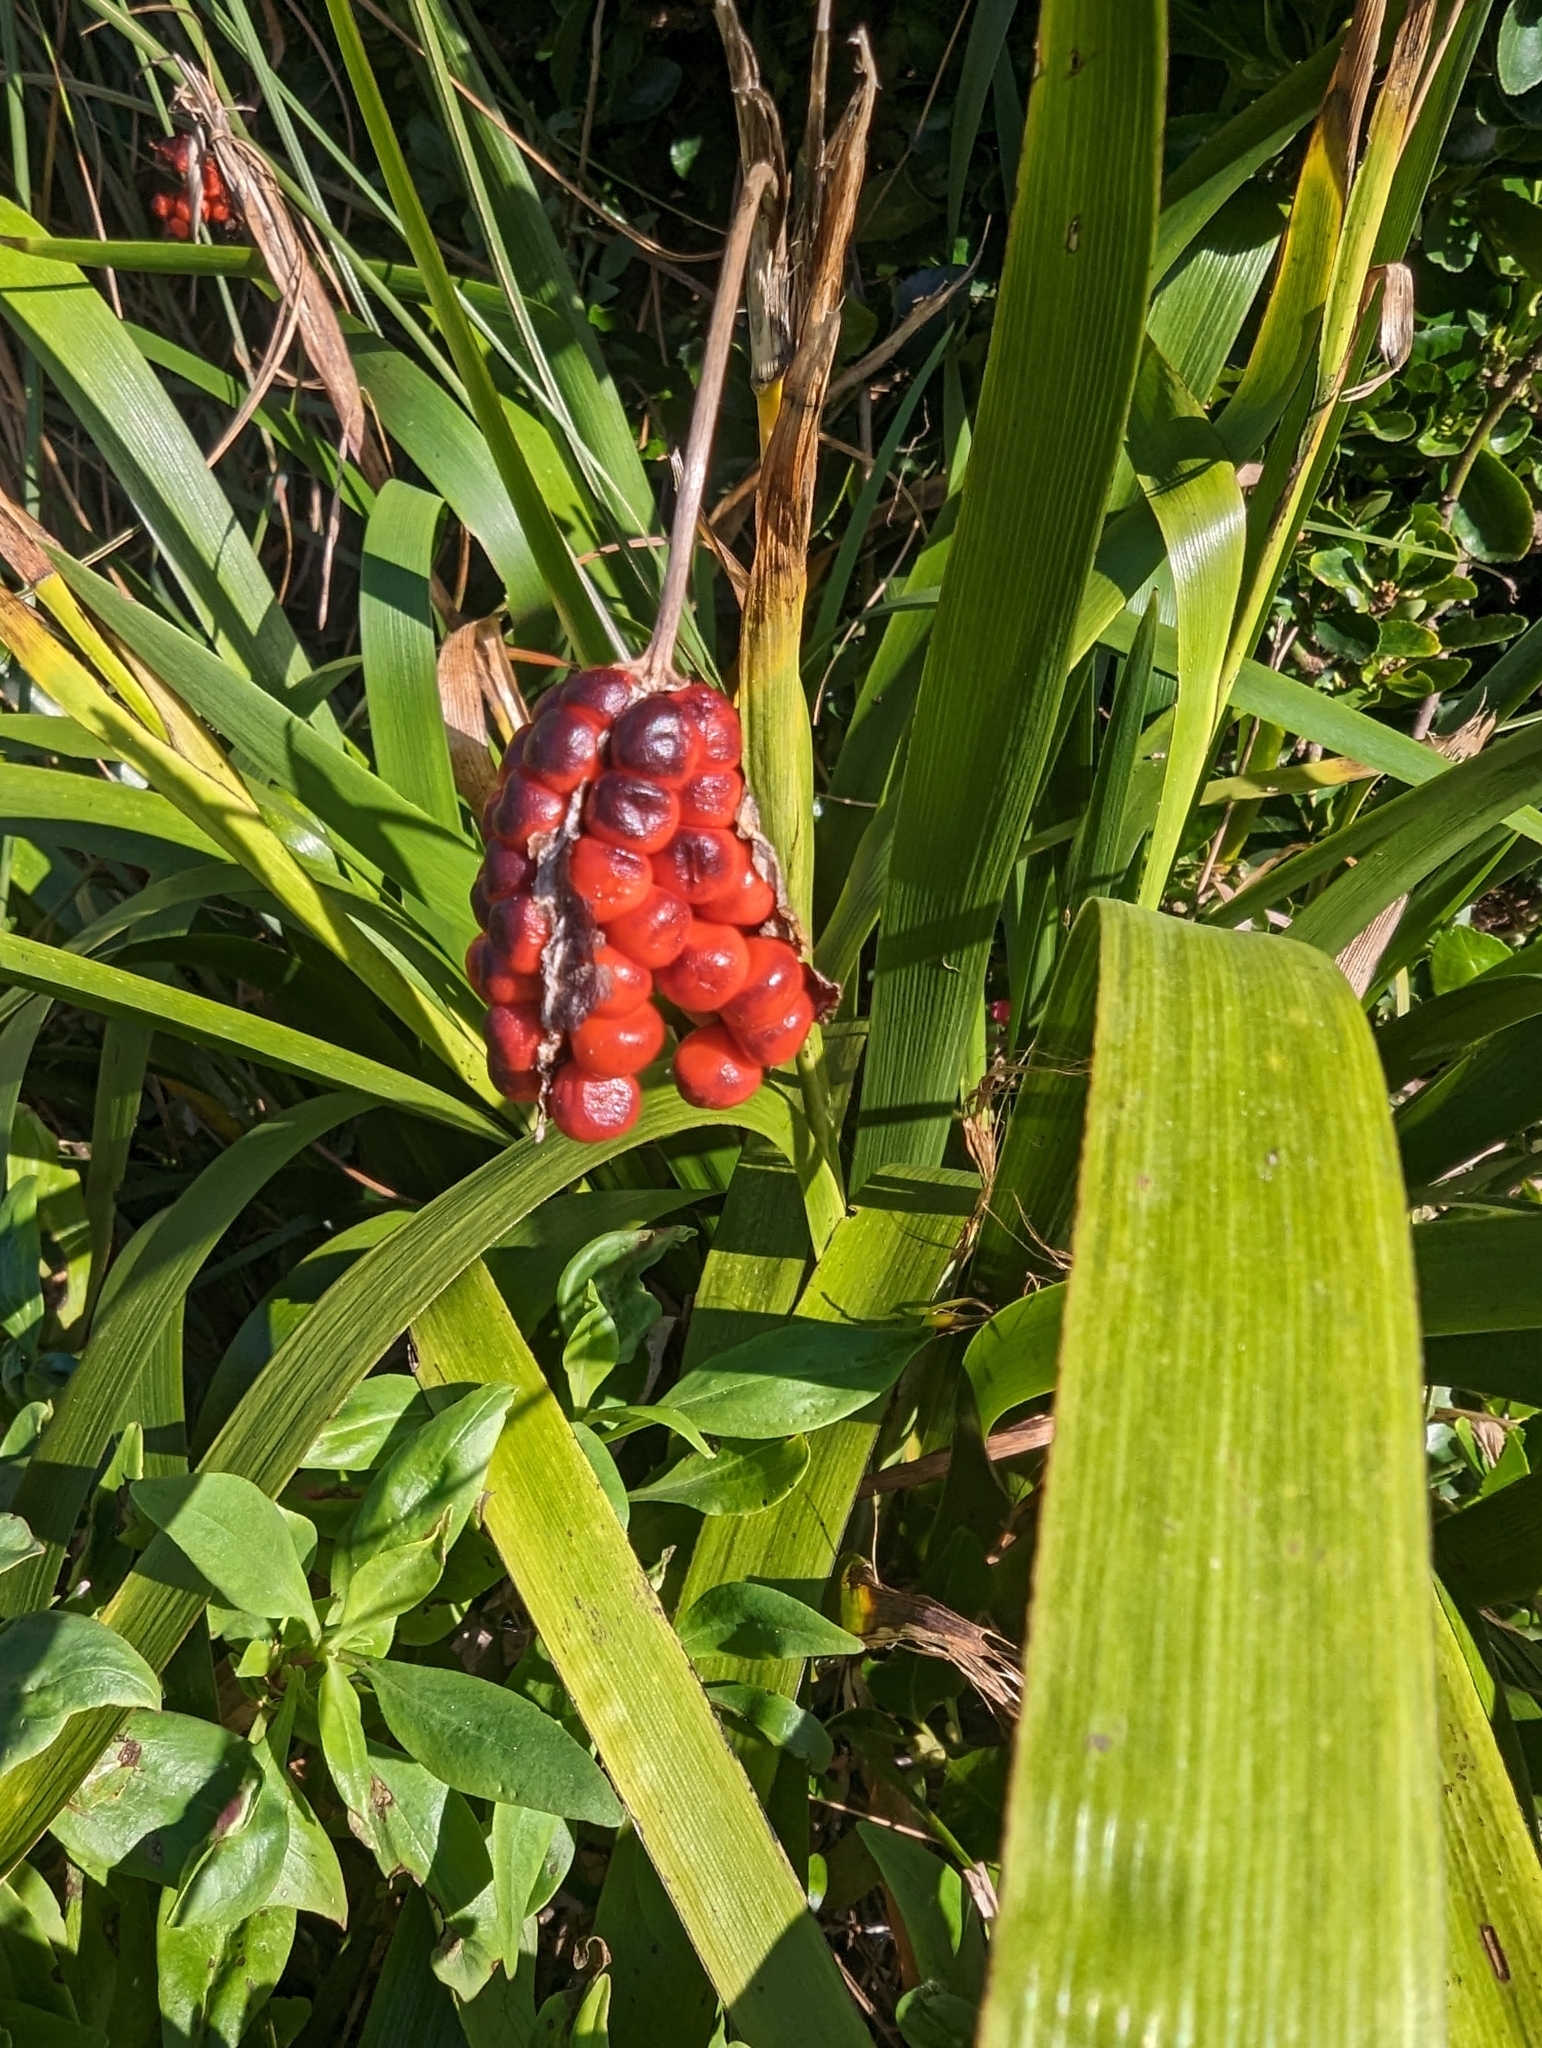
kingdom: Plantae
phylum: Tracheophyta
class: Liliopsida
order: Asparagales
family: Iridaceae
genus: Iris
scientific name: Iris foetidissima
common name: Stinking iris
